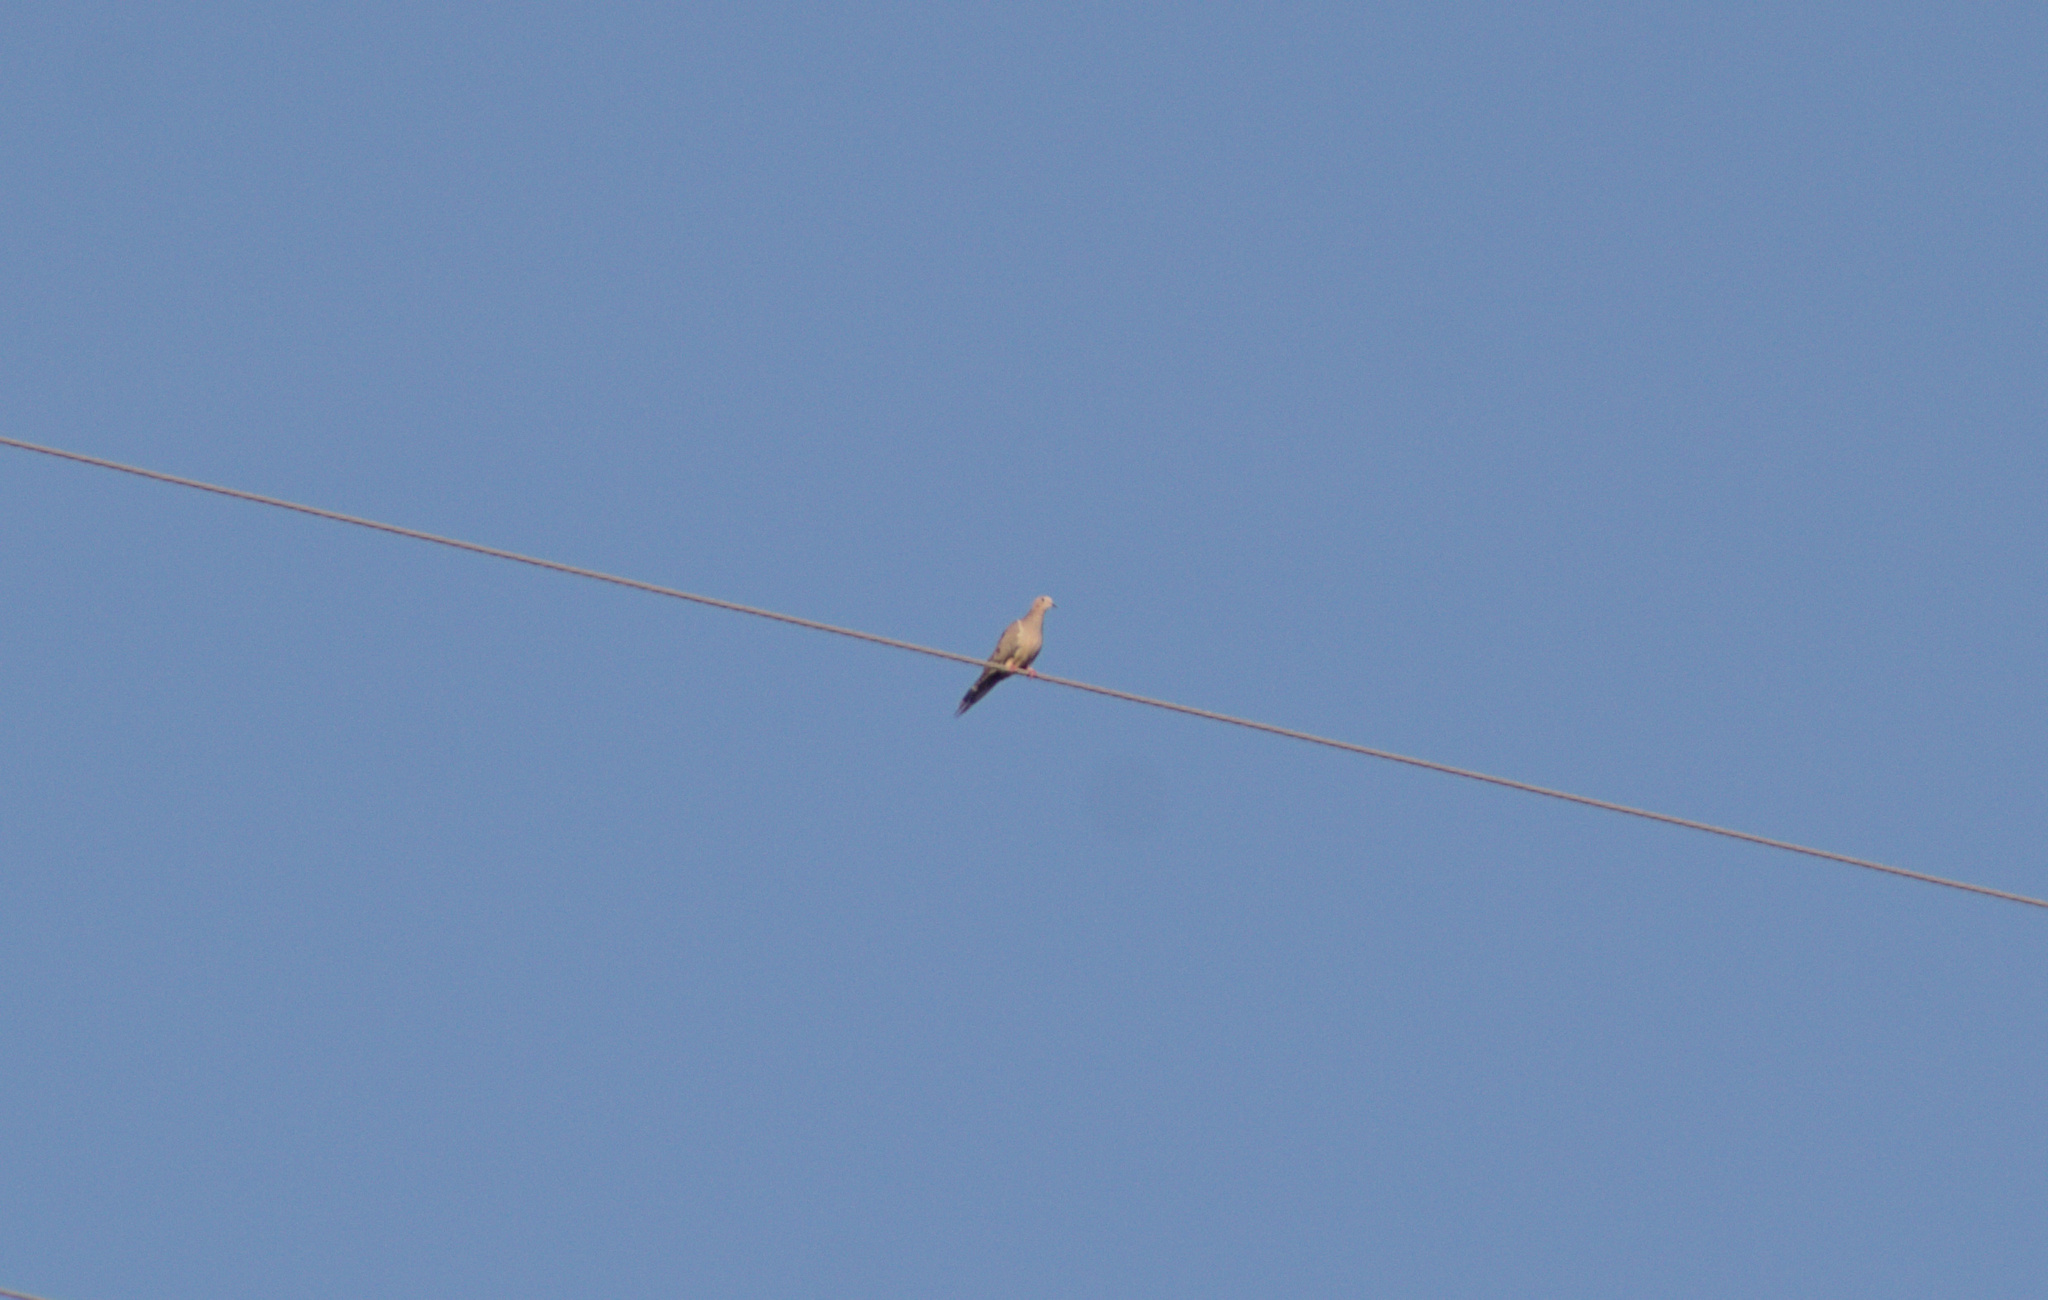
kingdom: Animalia
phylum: Chordata
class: Aves
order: Columbiformes
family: Columbidae
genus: Zenaida
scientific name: Zenaida macroura
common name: Mourning dove
